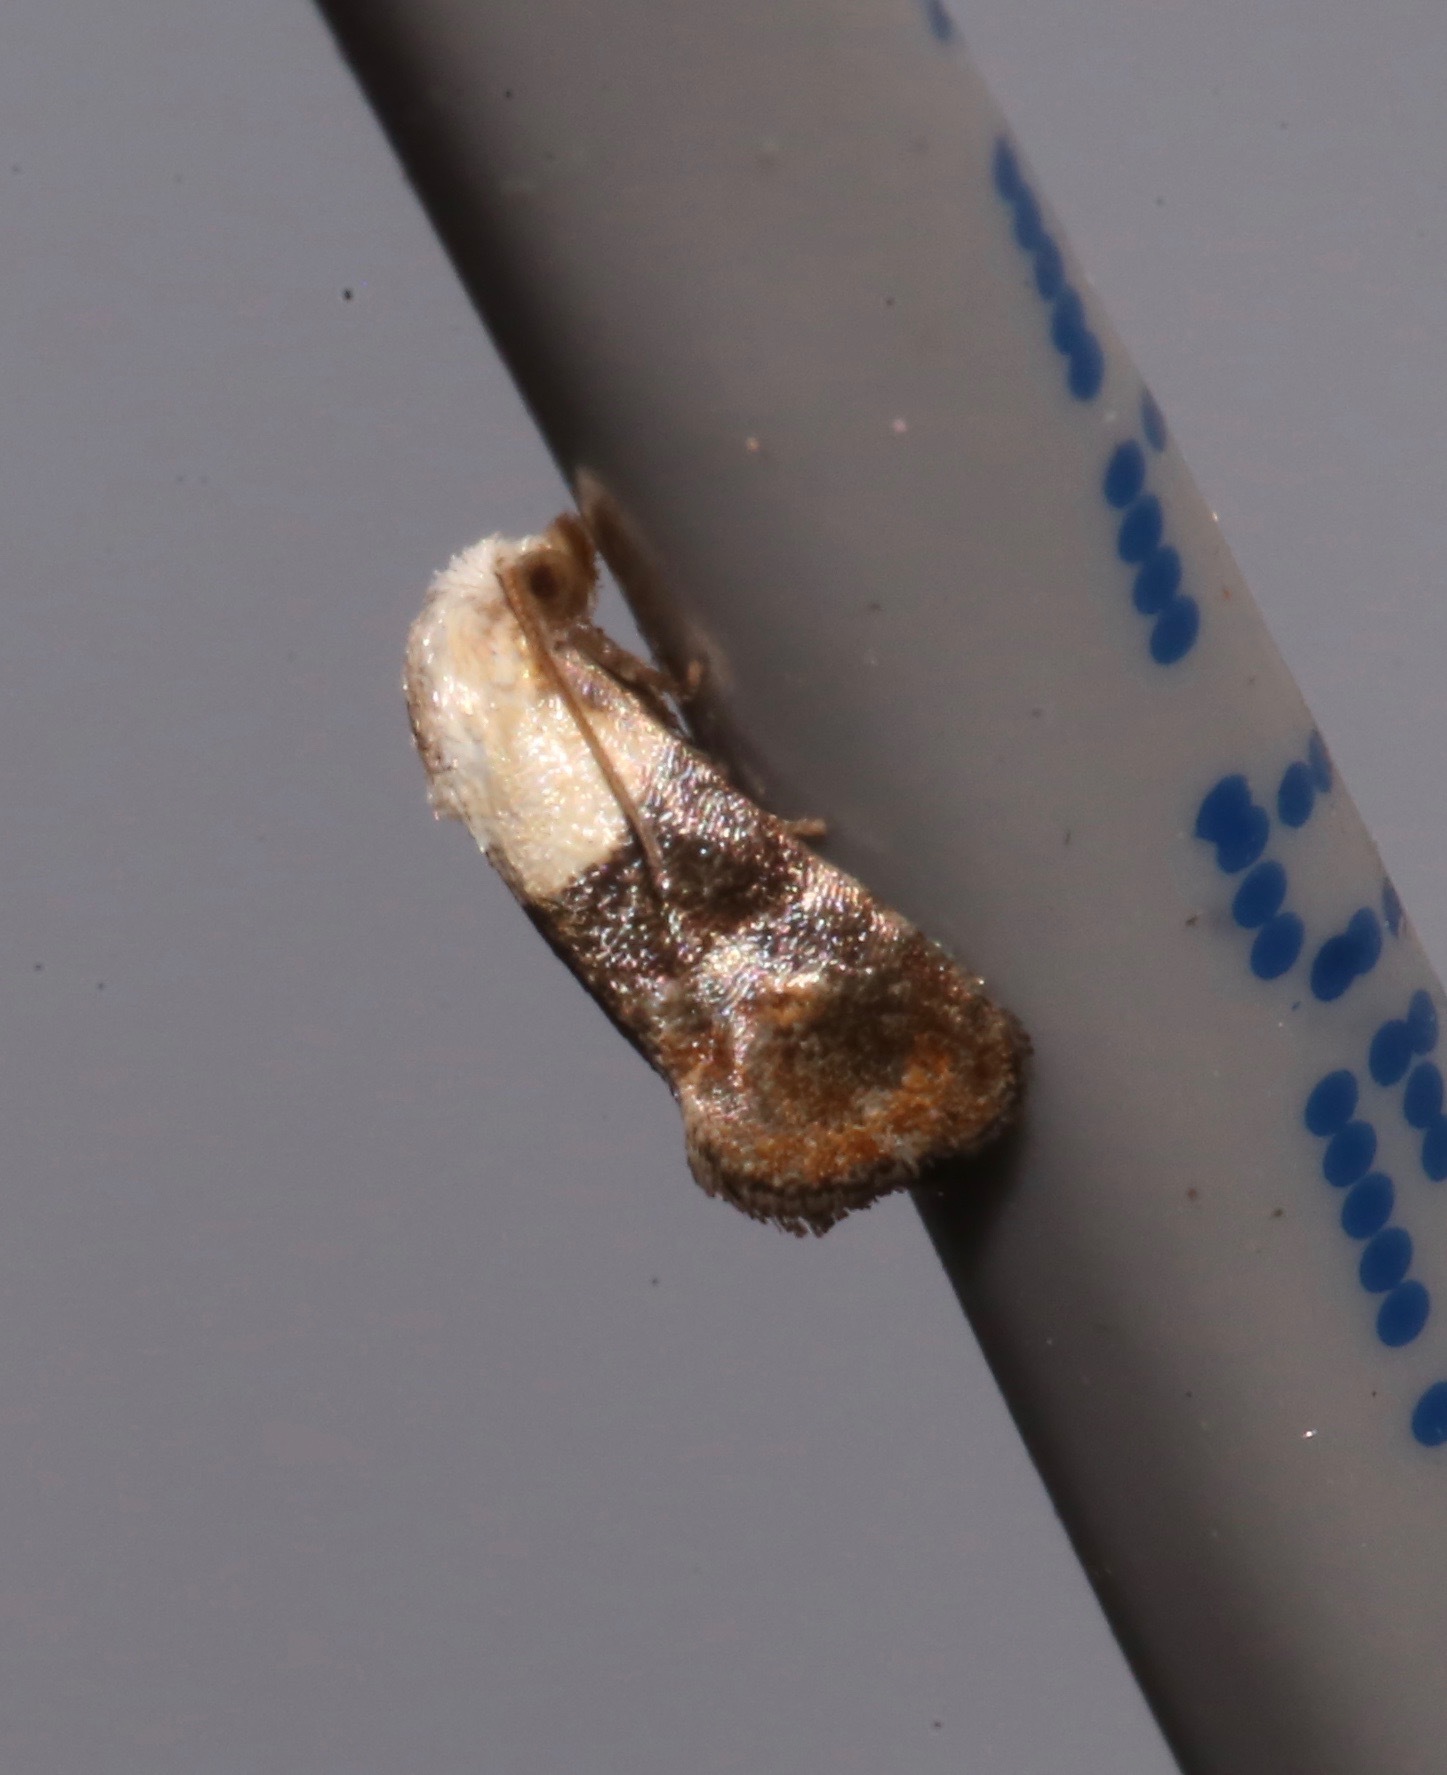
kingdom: Animalia
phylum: Arthropoda
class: Insecta
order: Lepidoptera
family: Tortricidae
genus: Eugnosta
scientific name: Eugnosta erigeronana
